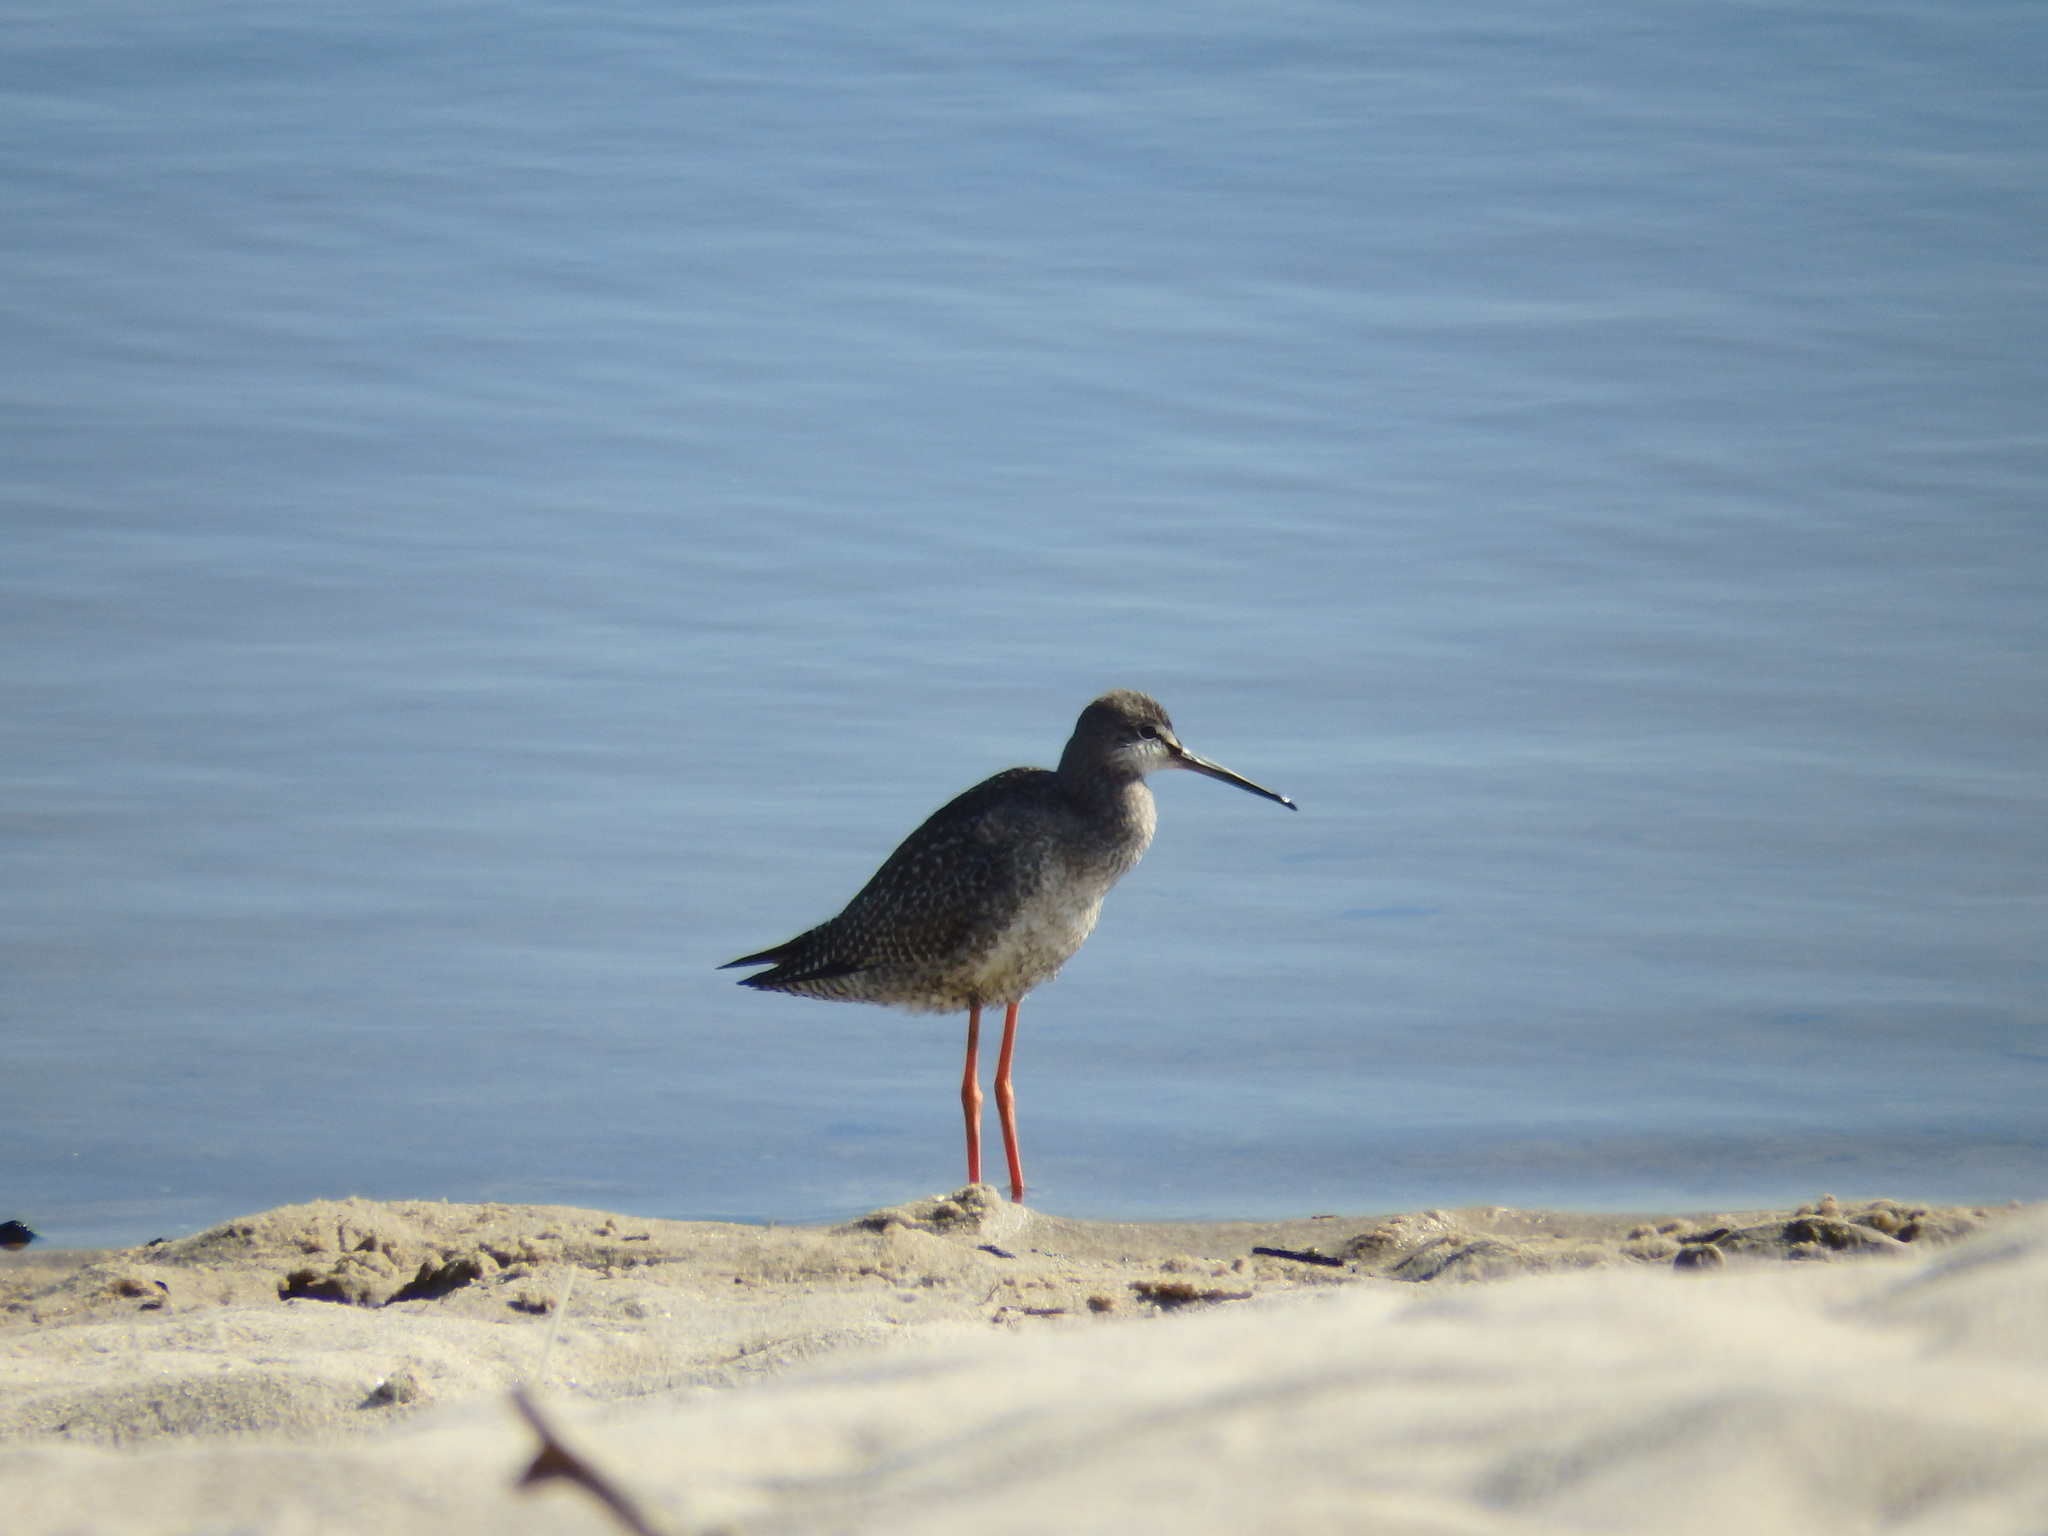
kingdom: Animalia
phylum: Chordata
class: Aves
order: Charadriiformes
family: Scolopacidae
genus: Tringa
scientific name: Tringa erythropus
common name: Spotted redshank
